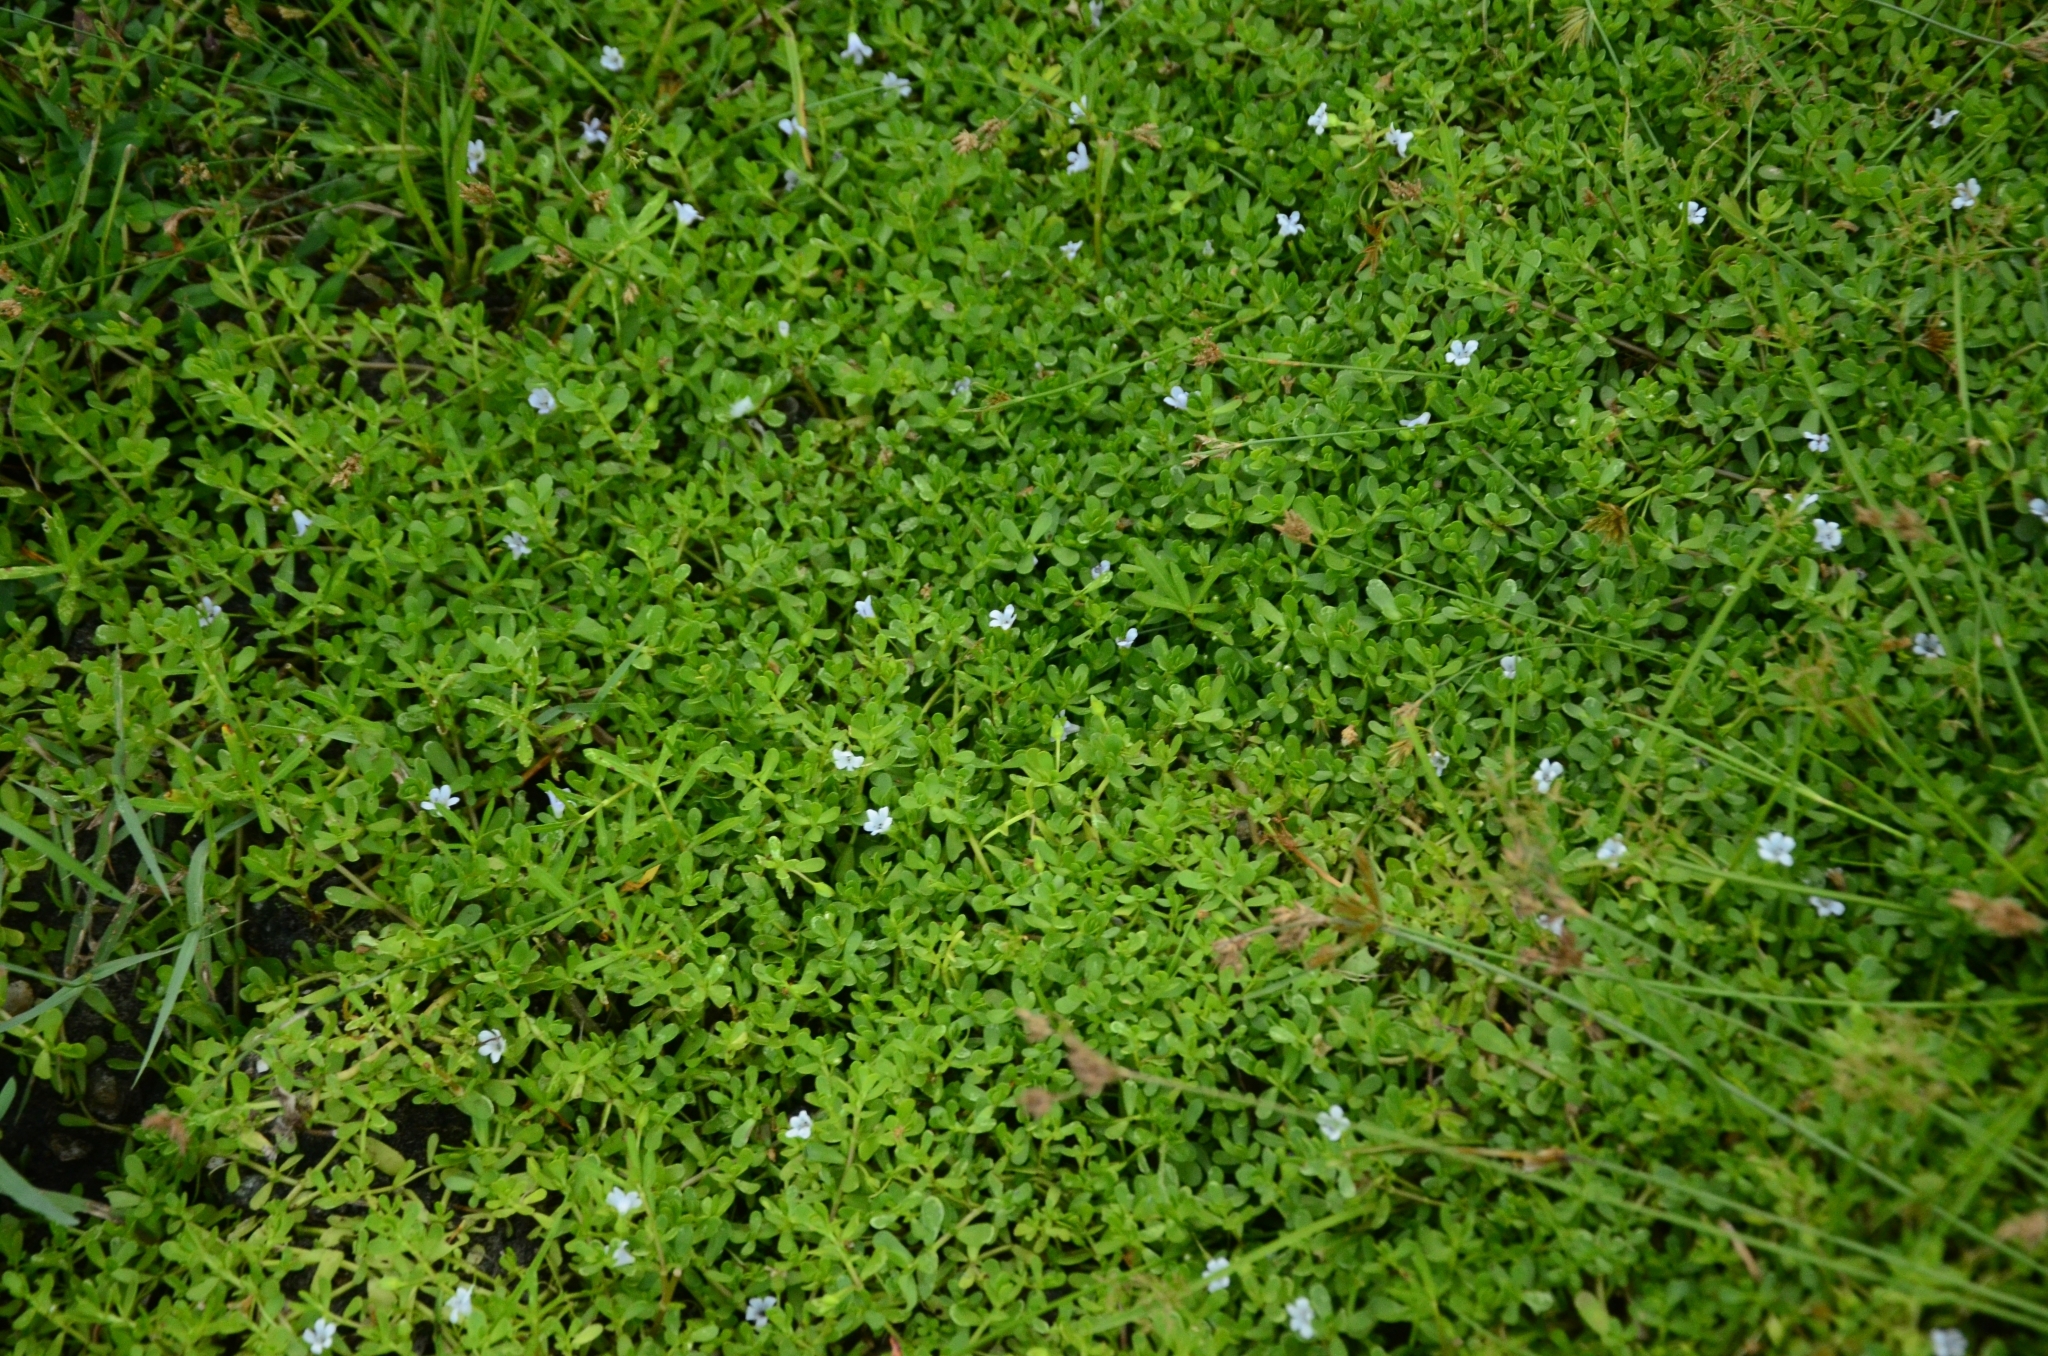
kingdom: Plantae
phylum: Tracheophyta
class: Magnoliopsida
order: Lamiales
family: Plantaginaceae
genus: Bacopa
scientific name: Bacopa monnieri
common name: Indian-pennywort
